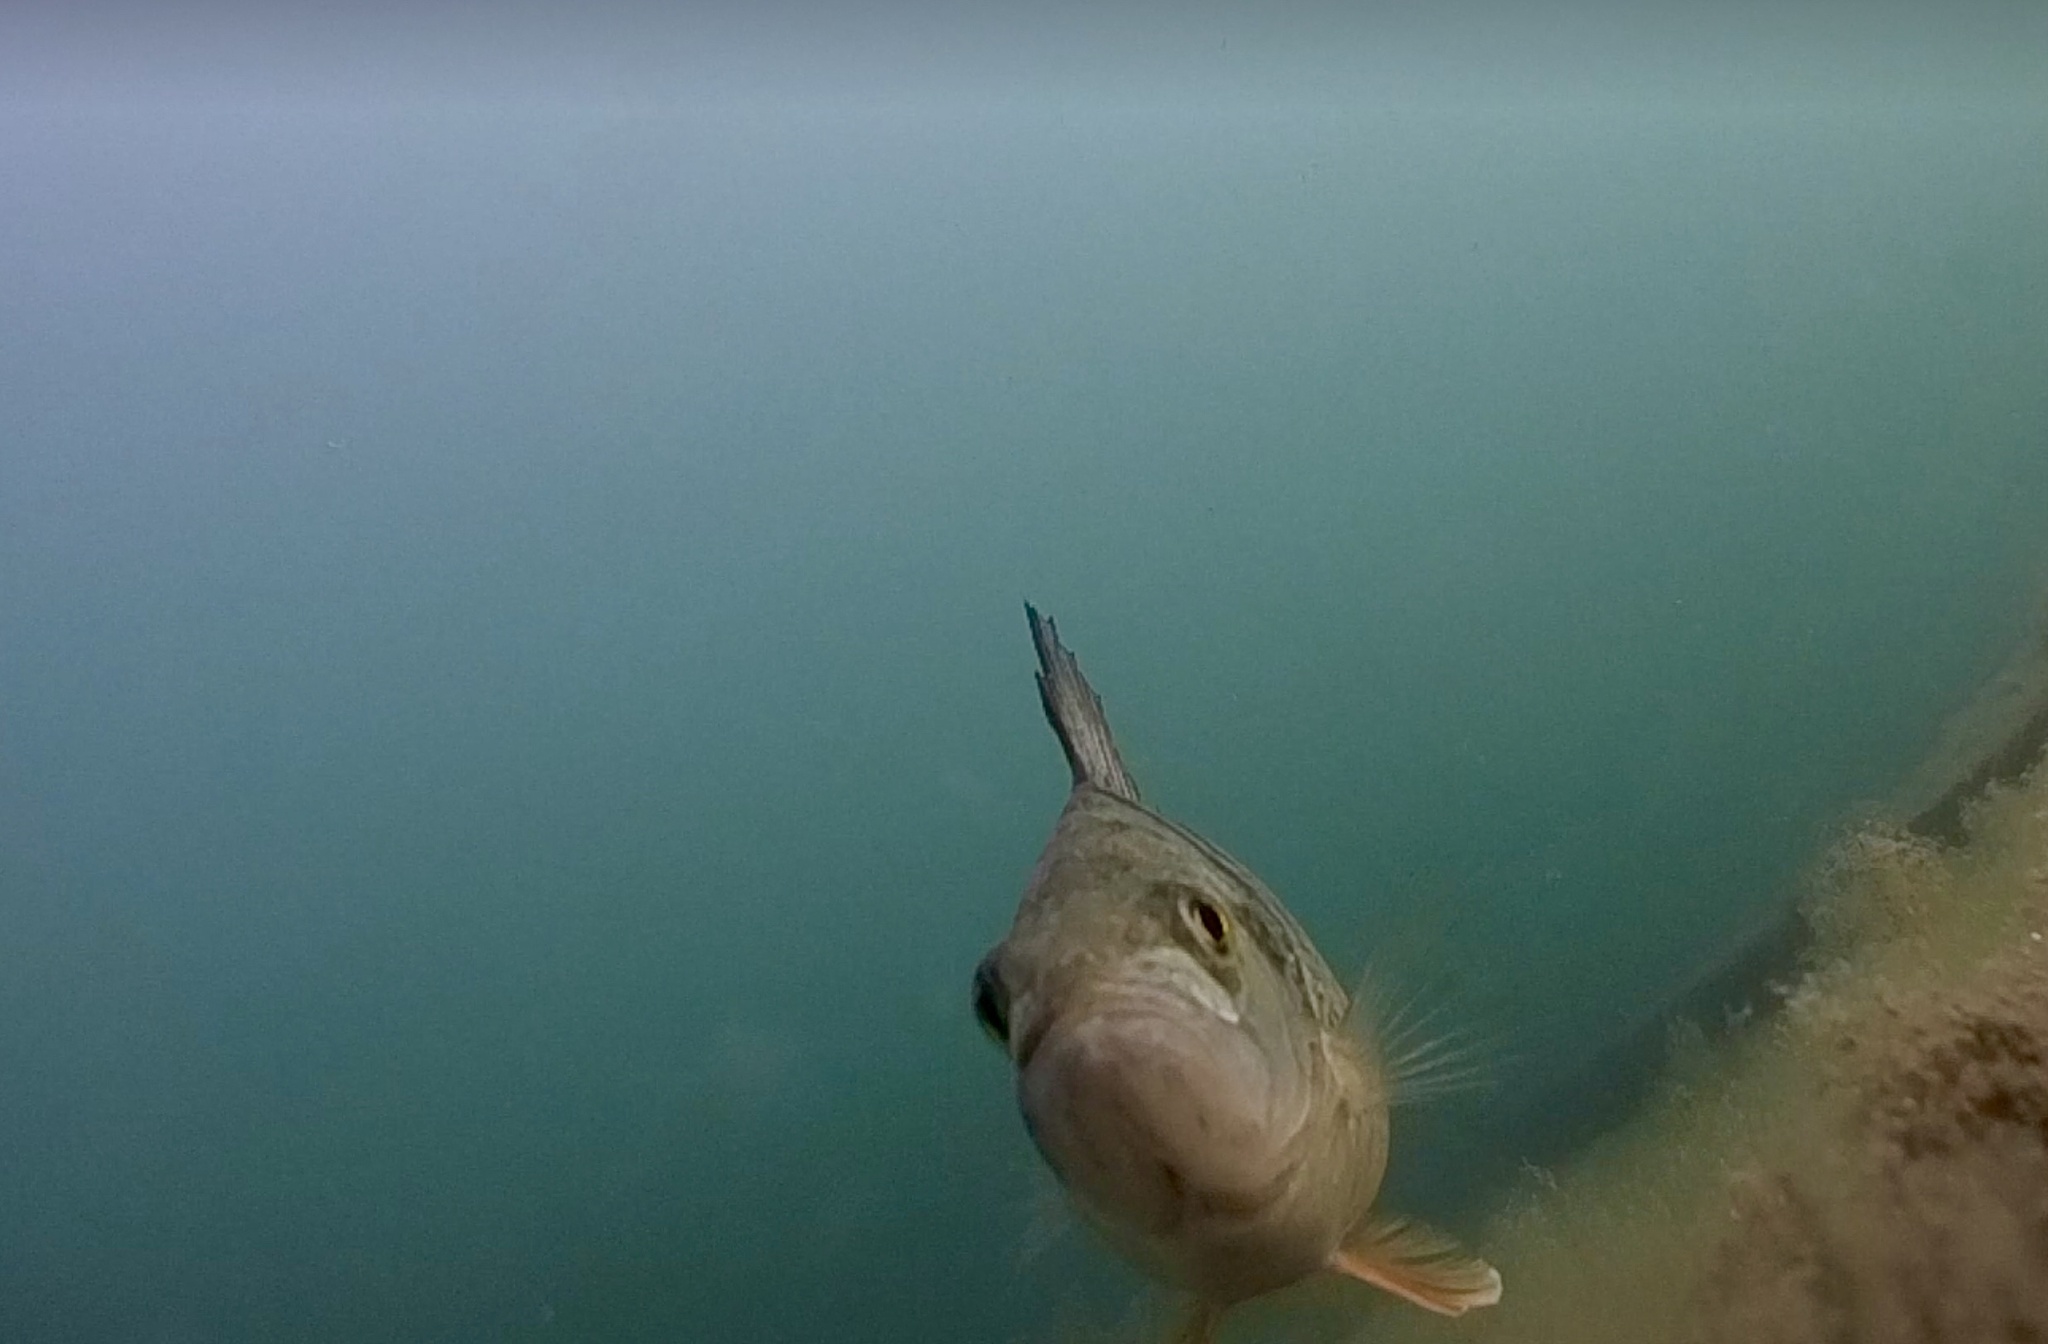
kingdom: Animalia
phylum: Chordata
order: Perciformes
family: Percidae
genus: Perca
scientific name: Perca fluviatilis
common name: Perch
